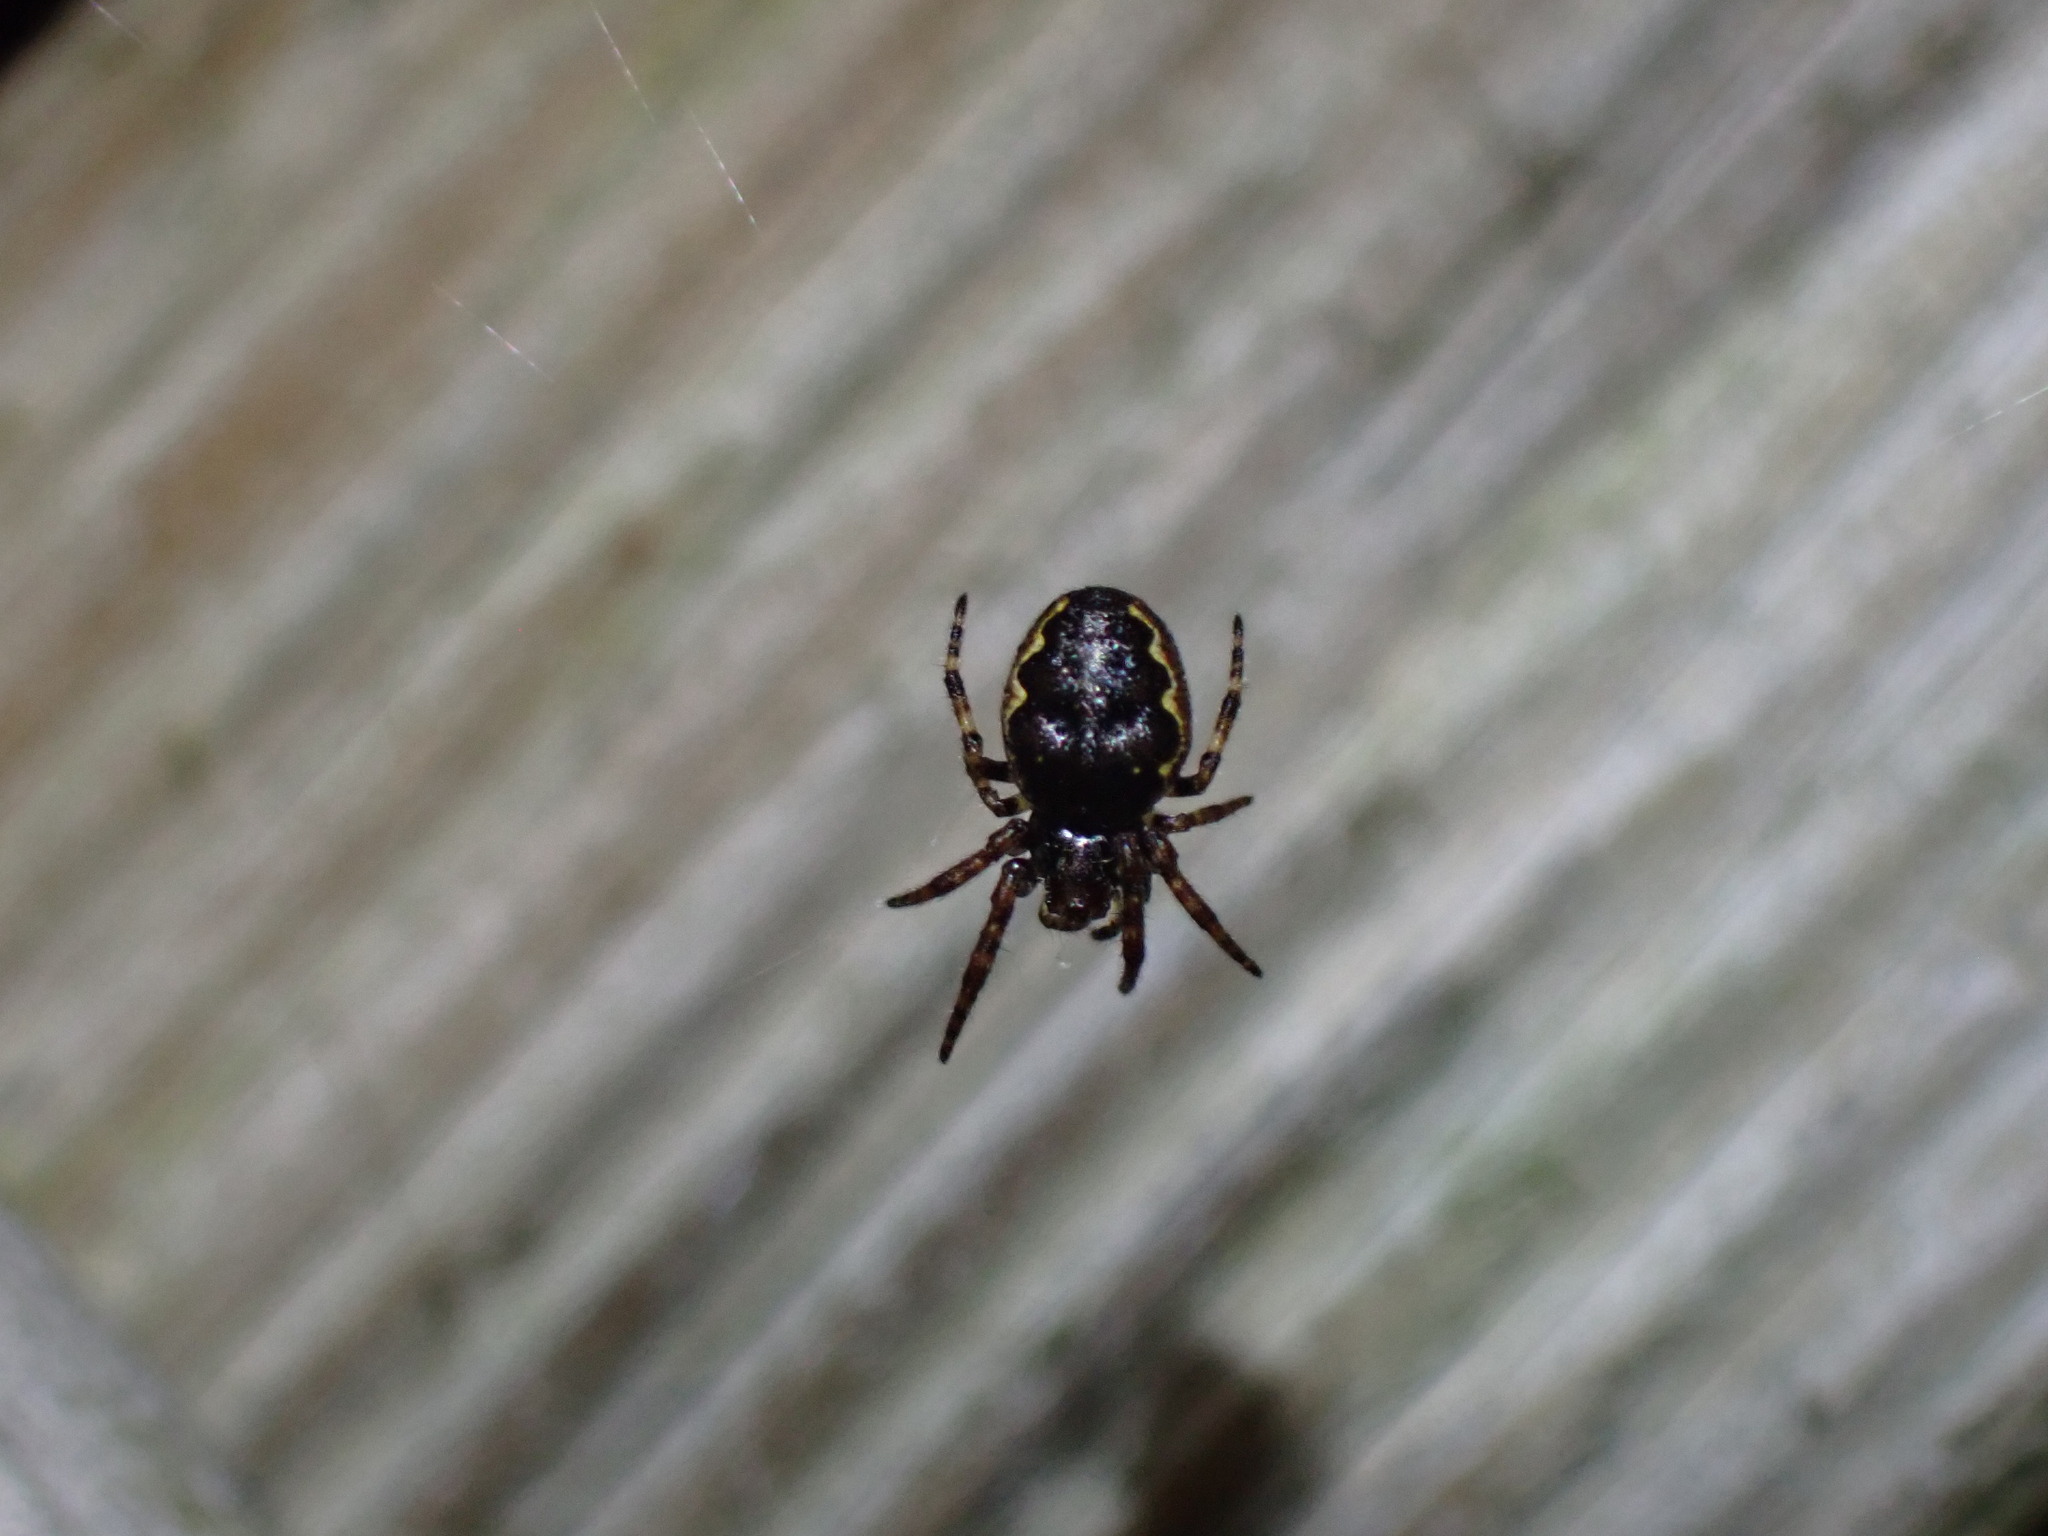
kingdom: Animalia
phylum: Arthropoda
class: Arachnida
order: Araneae
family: Araneidae
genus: Nuctenea
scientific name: Nuctenea umbratica
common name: Toad spider
